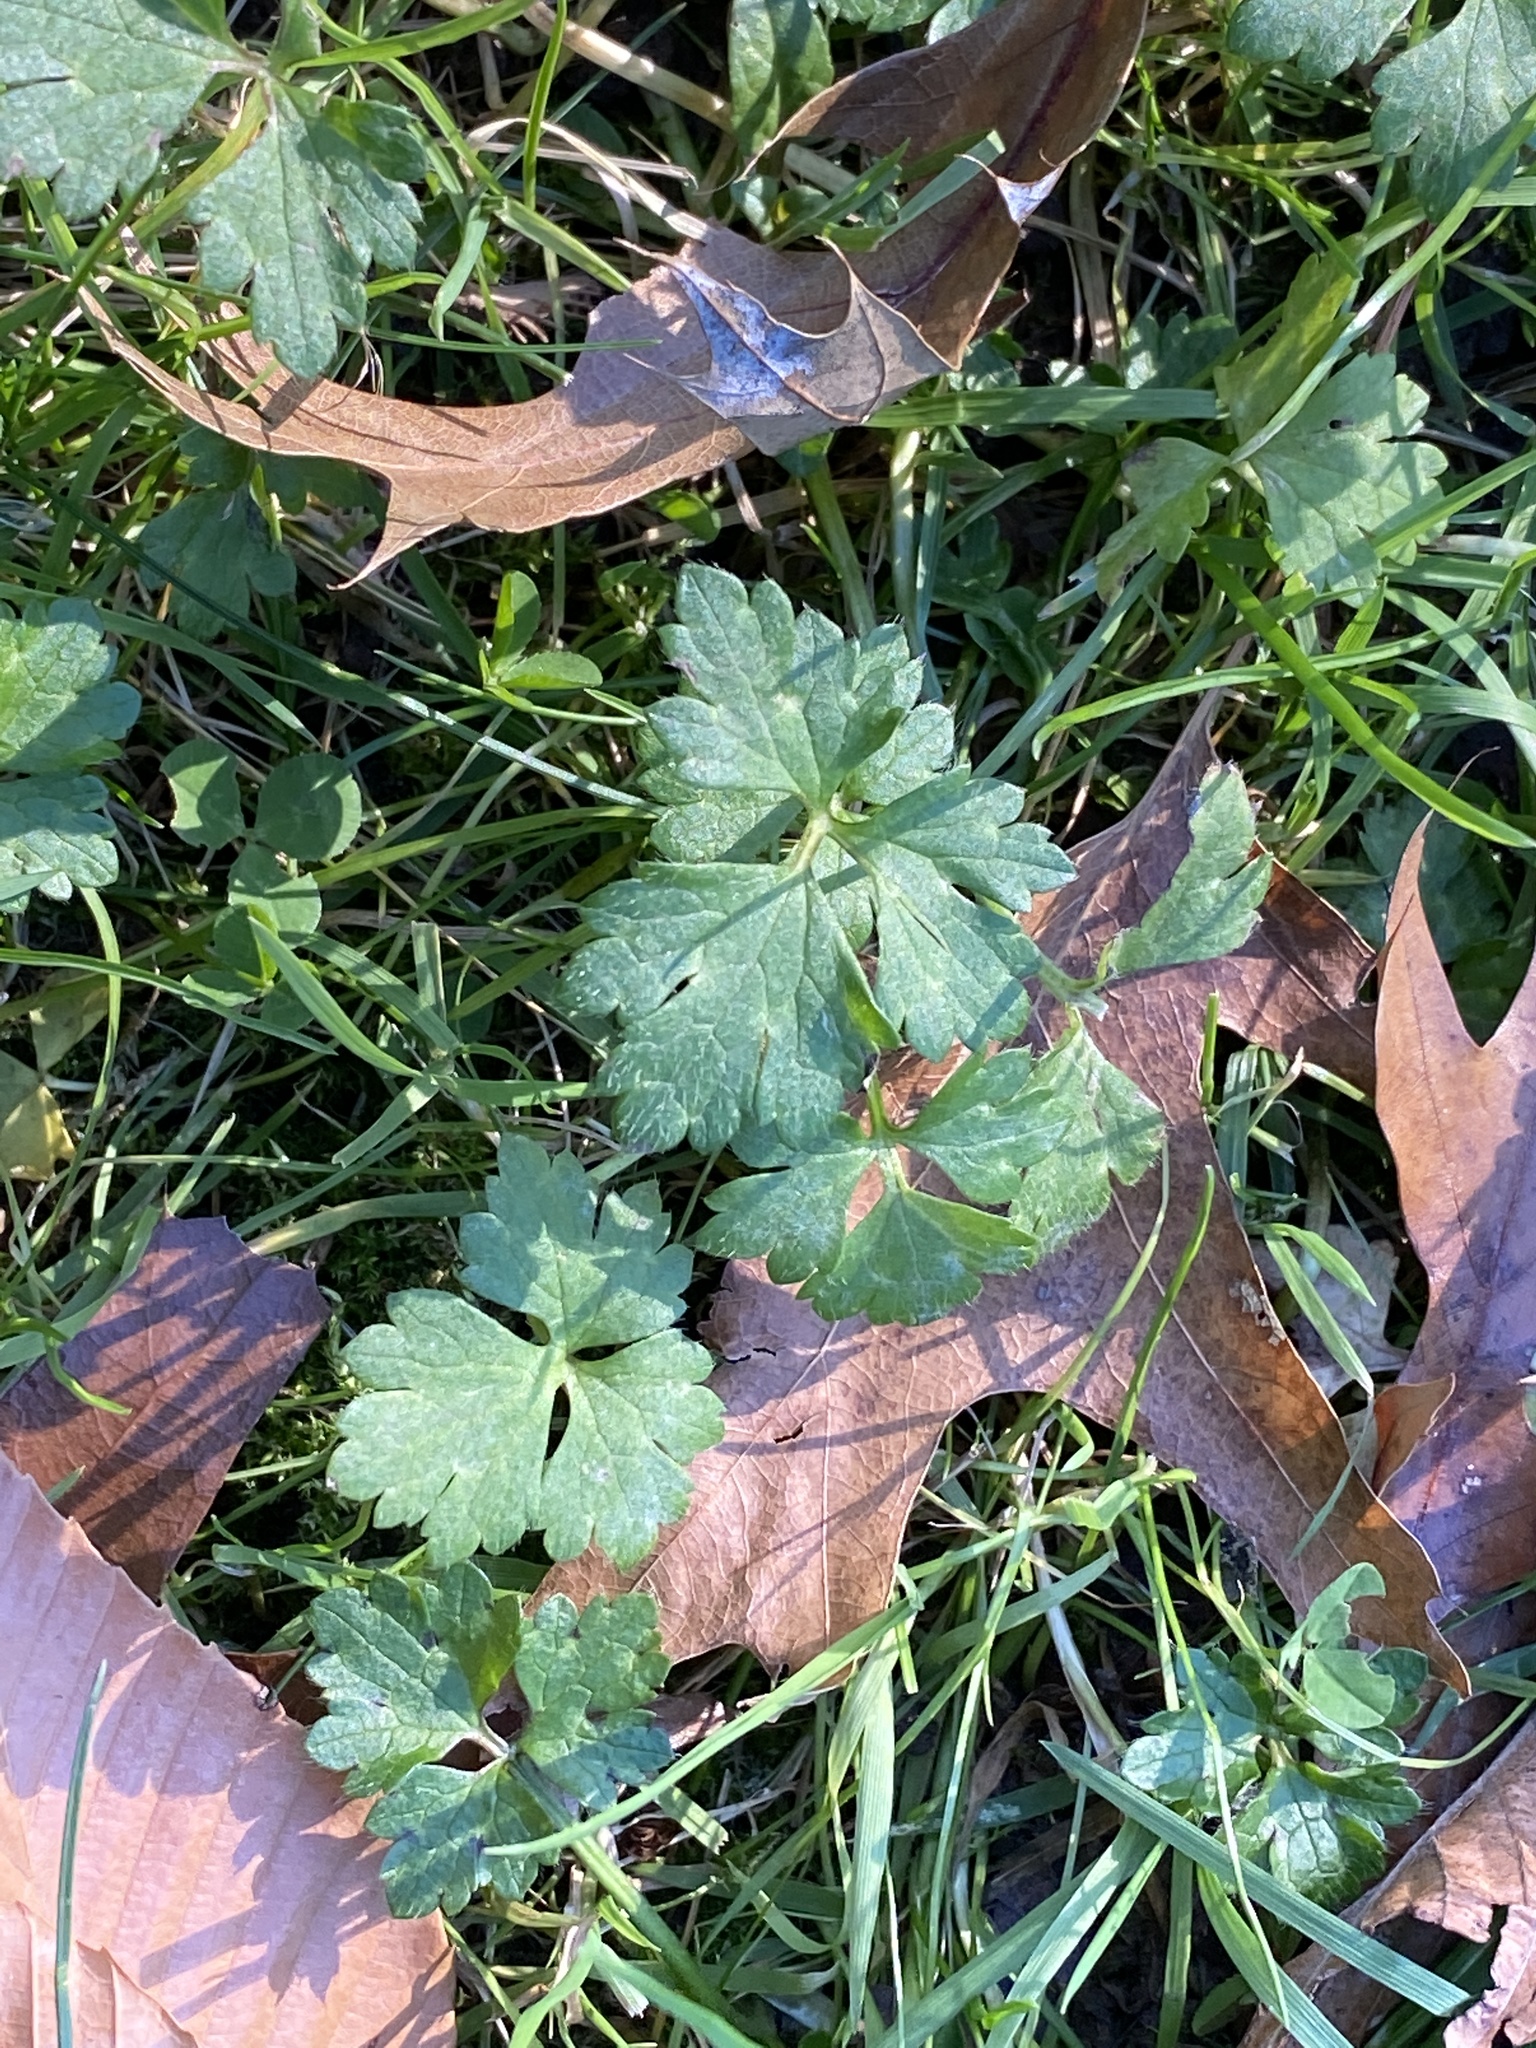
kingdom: Plantae
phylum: Tracheophyta
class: Magnoliopsida
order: Ranunculales
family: Ranunculaceae
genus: Ranunculus
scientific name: Ranunculus repens
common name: Creeping buttercup
